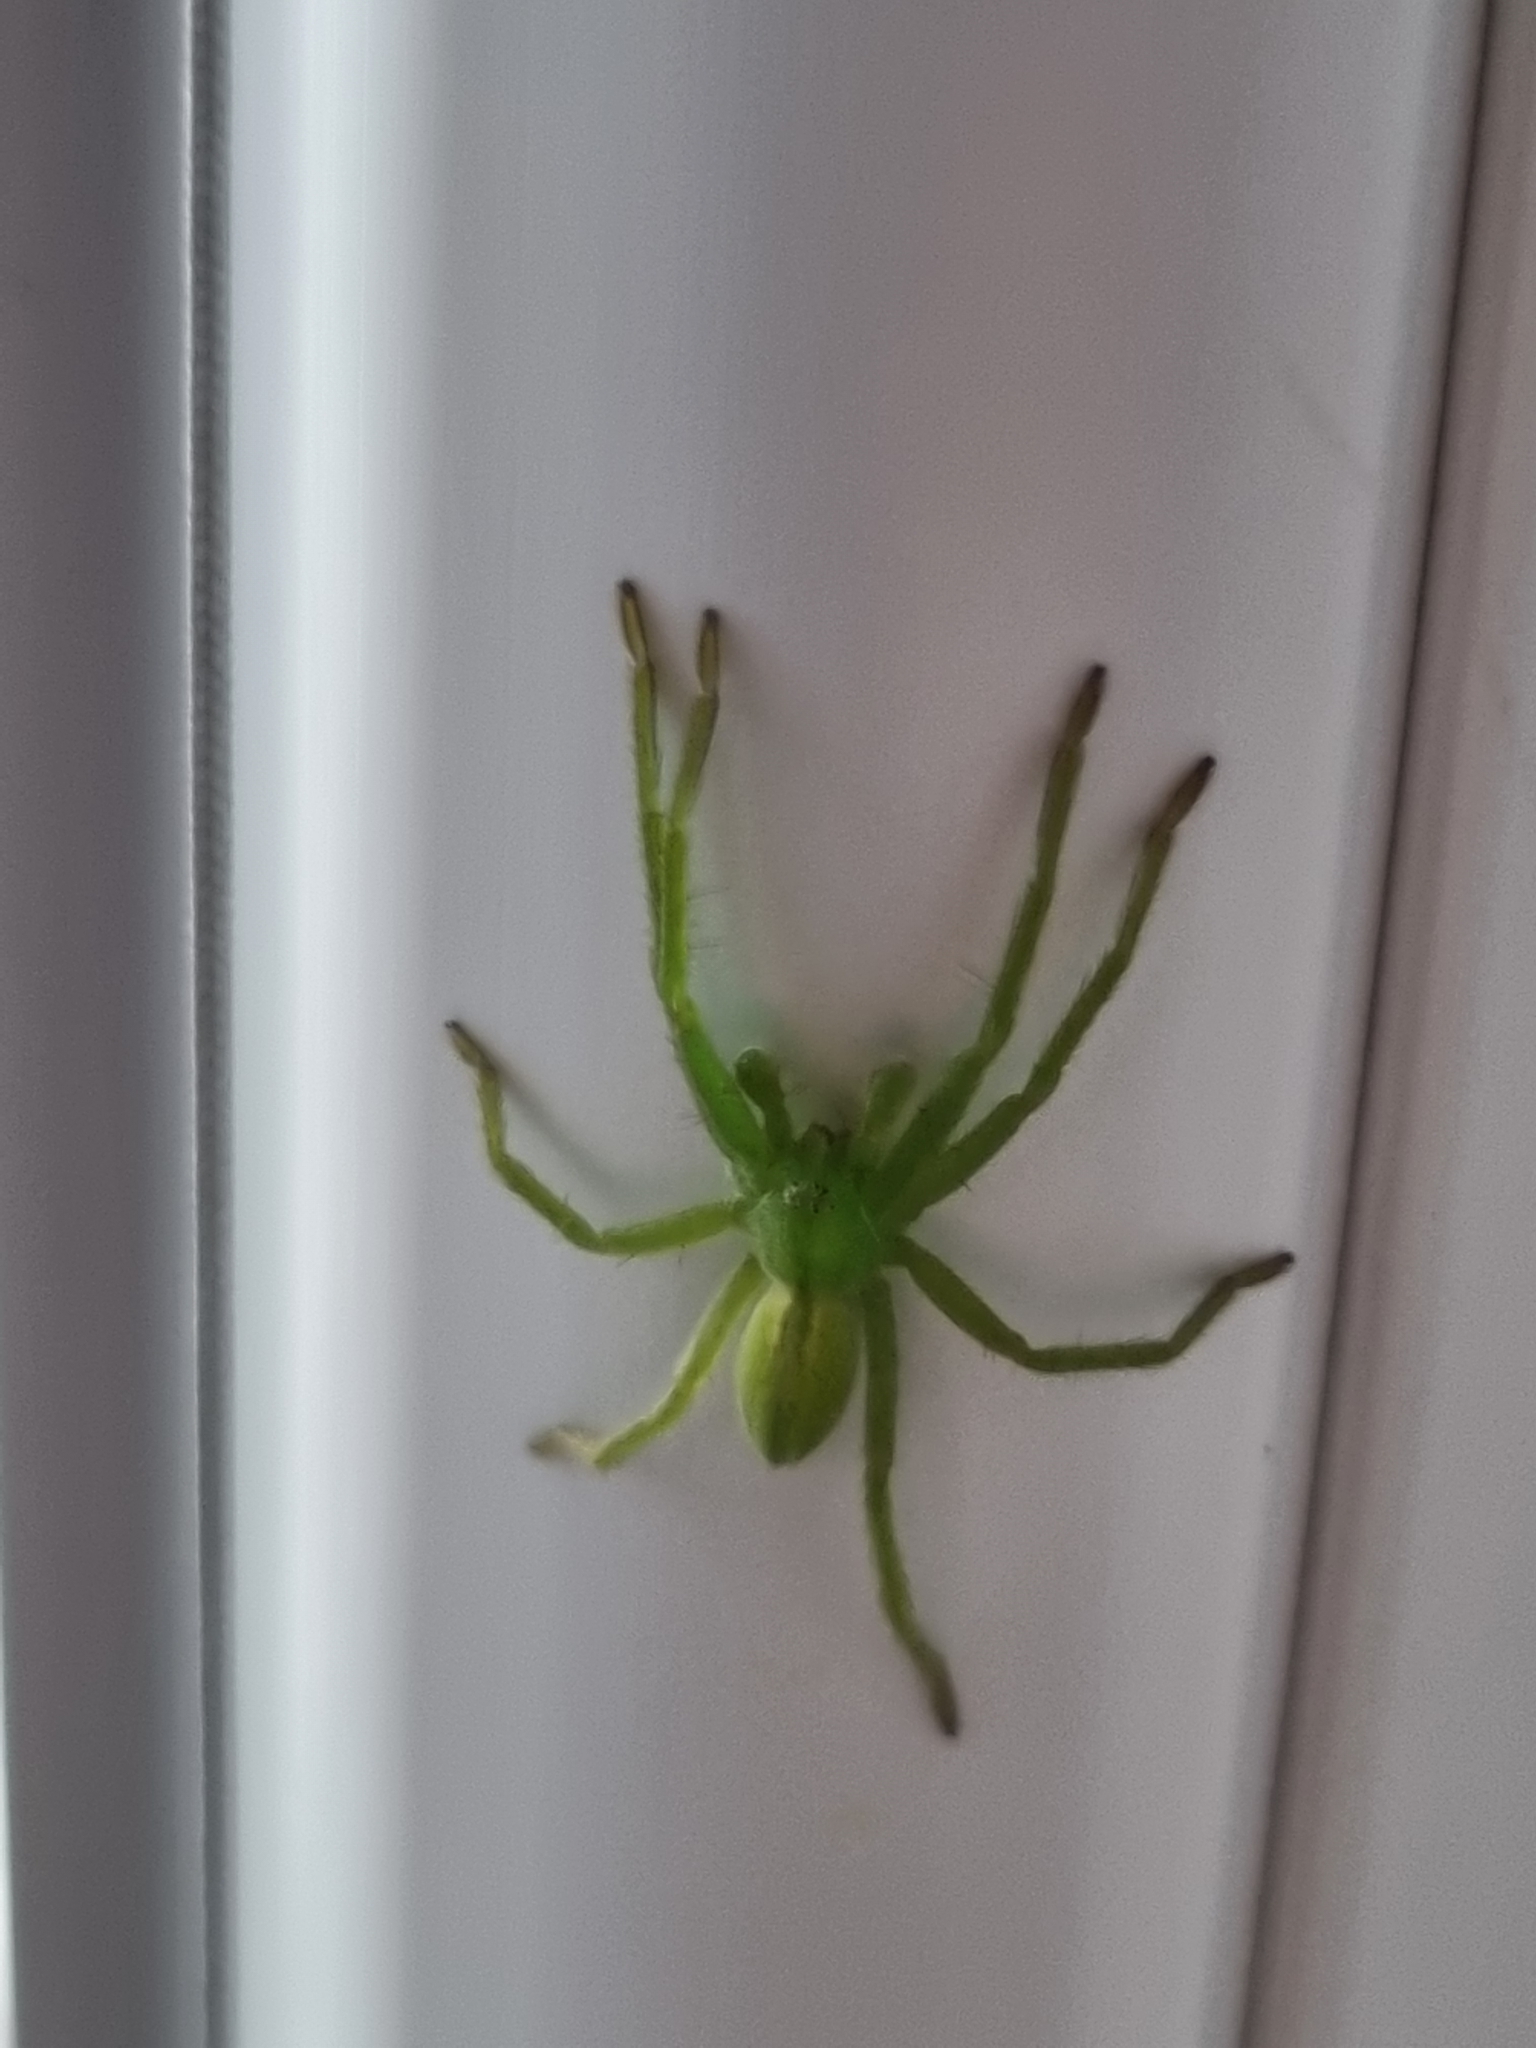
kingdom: Animalia
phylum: Arthropoda
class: Arachnida
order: Araneae
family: Sparassidae
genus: Micrommata
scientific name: Micrommata virescens
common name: Green spider
